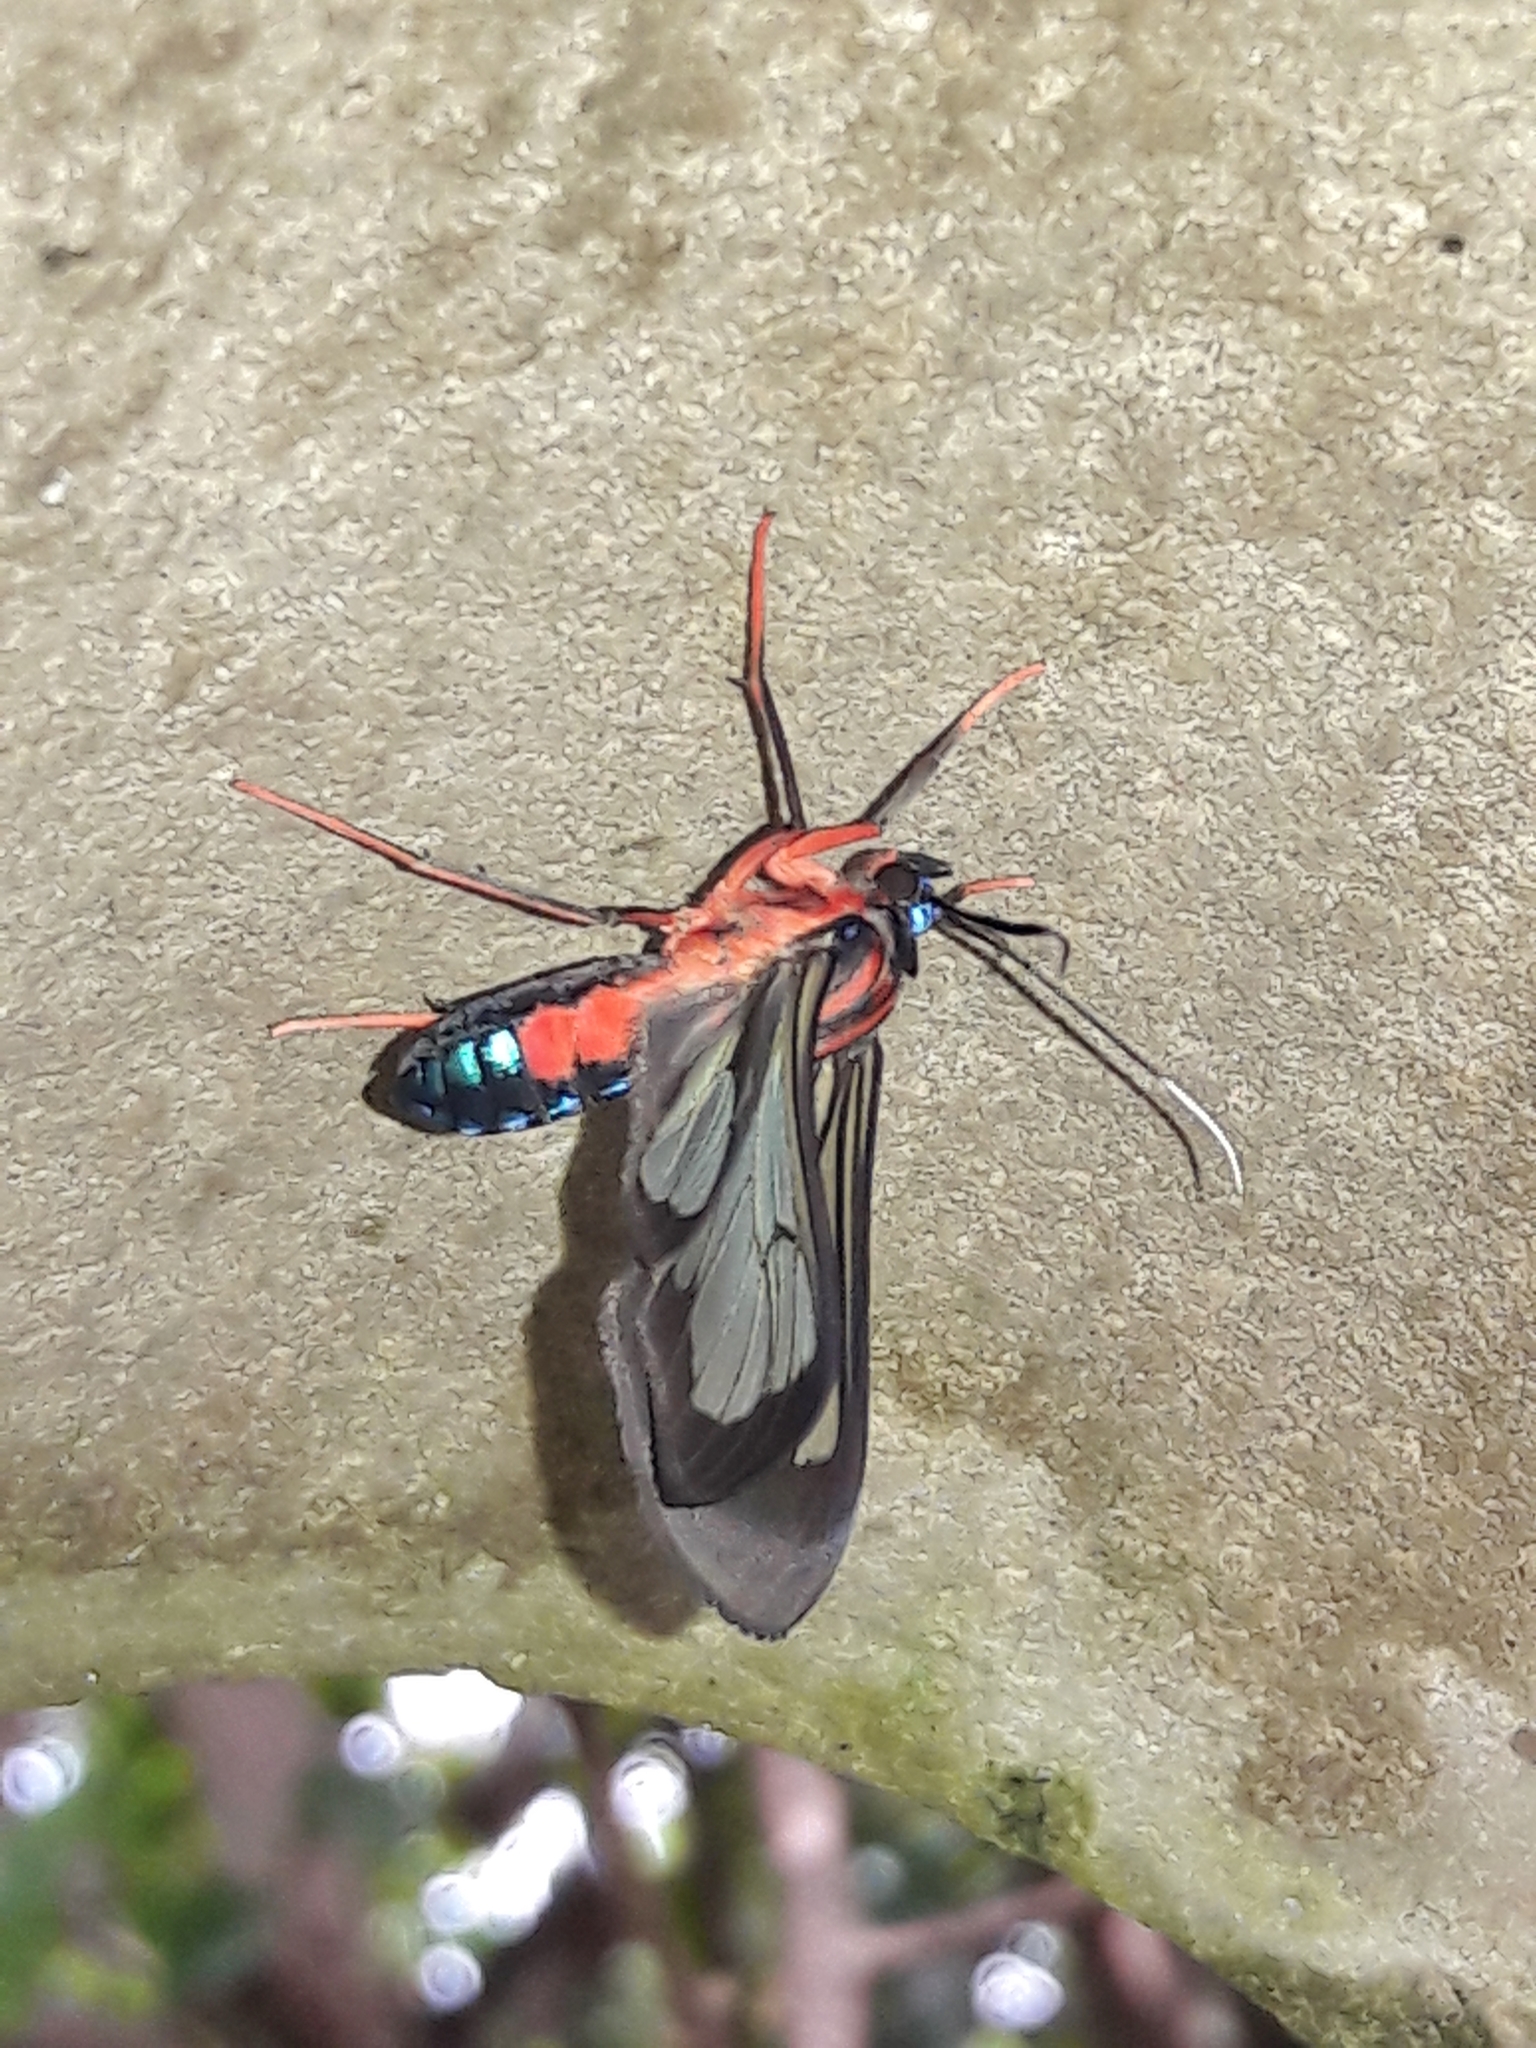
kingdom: Animalia
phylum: Arthropoda
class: Insecta
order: Lepidoptera
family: Erebidae
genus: Cosmosoma
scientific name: Cosmosoma auge
